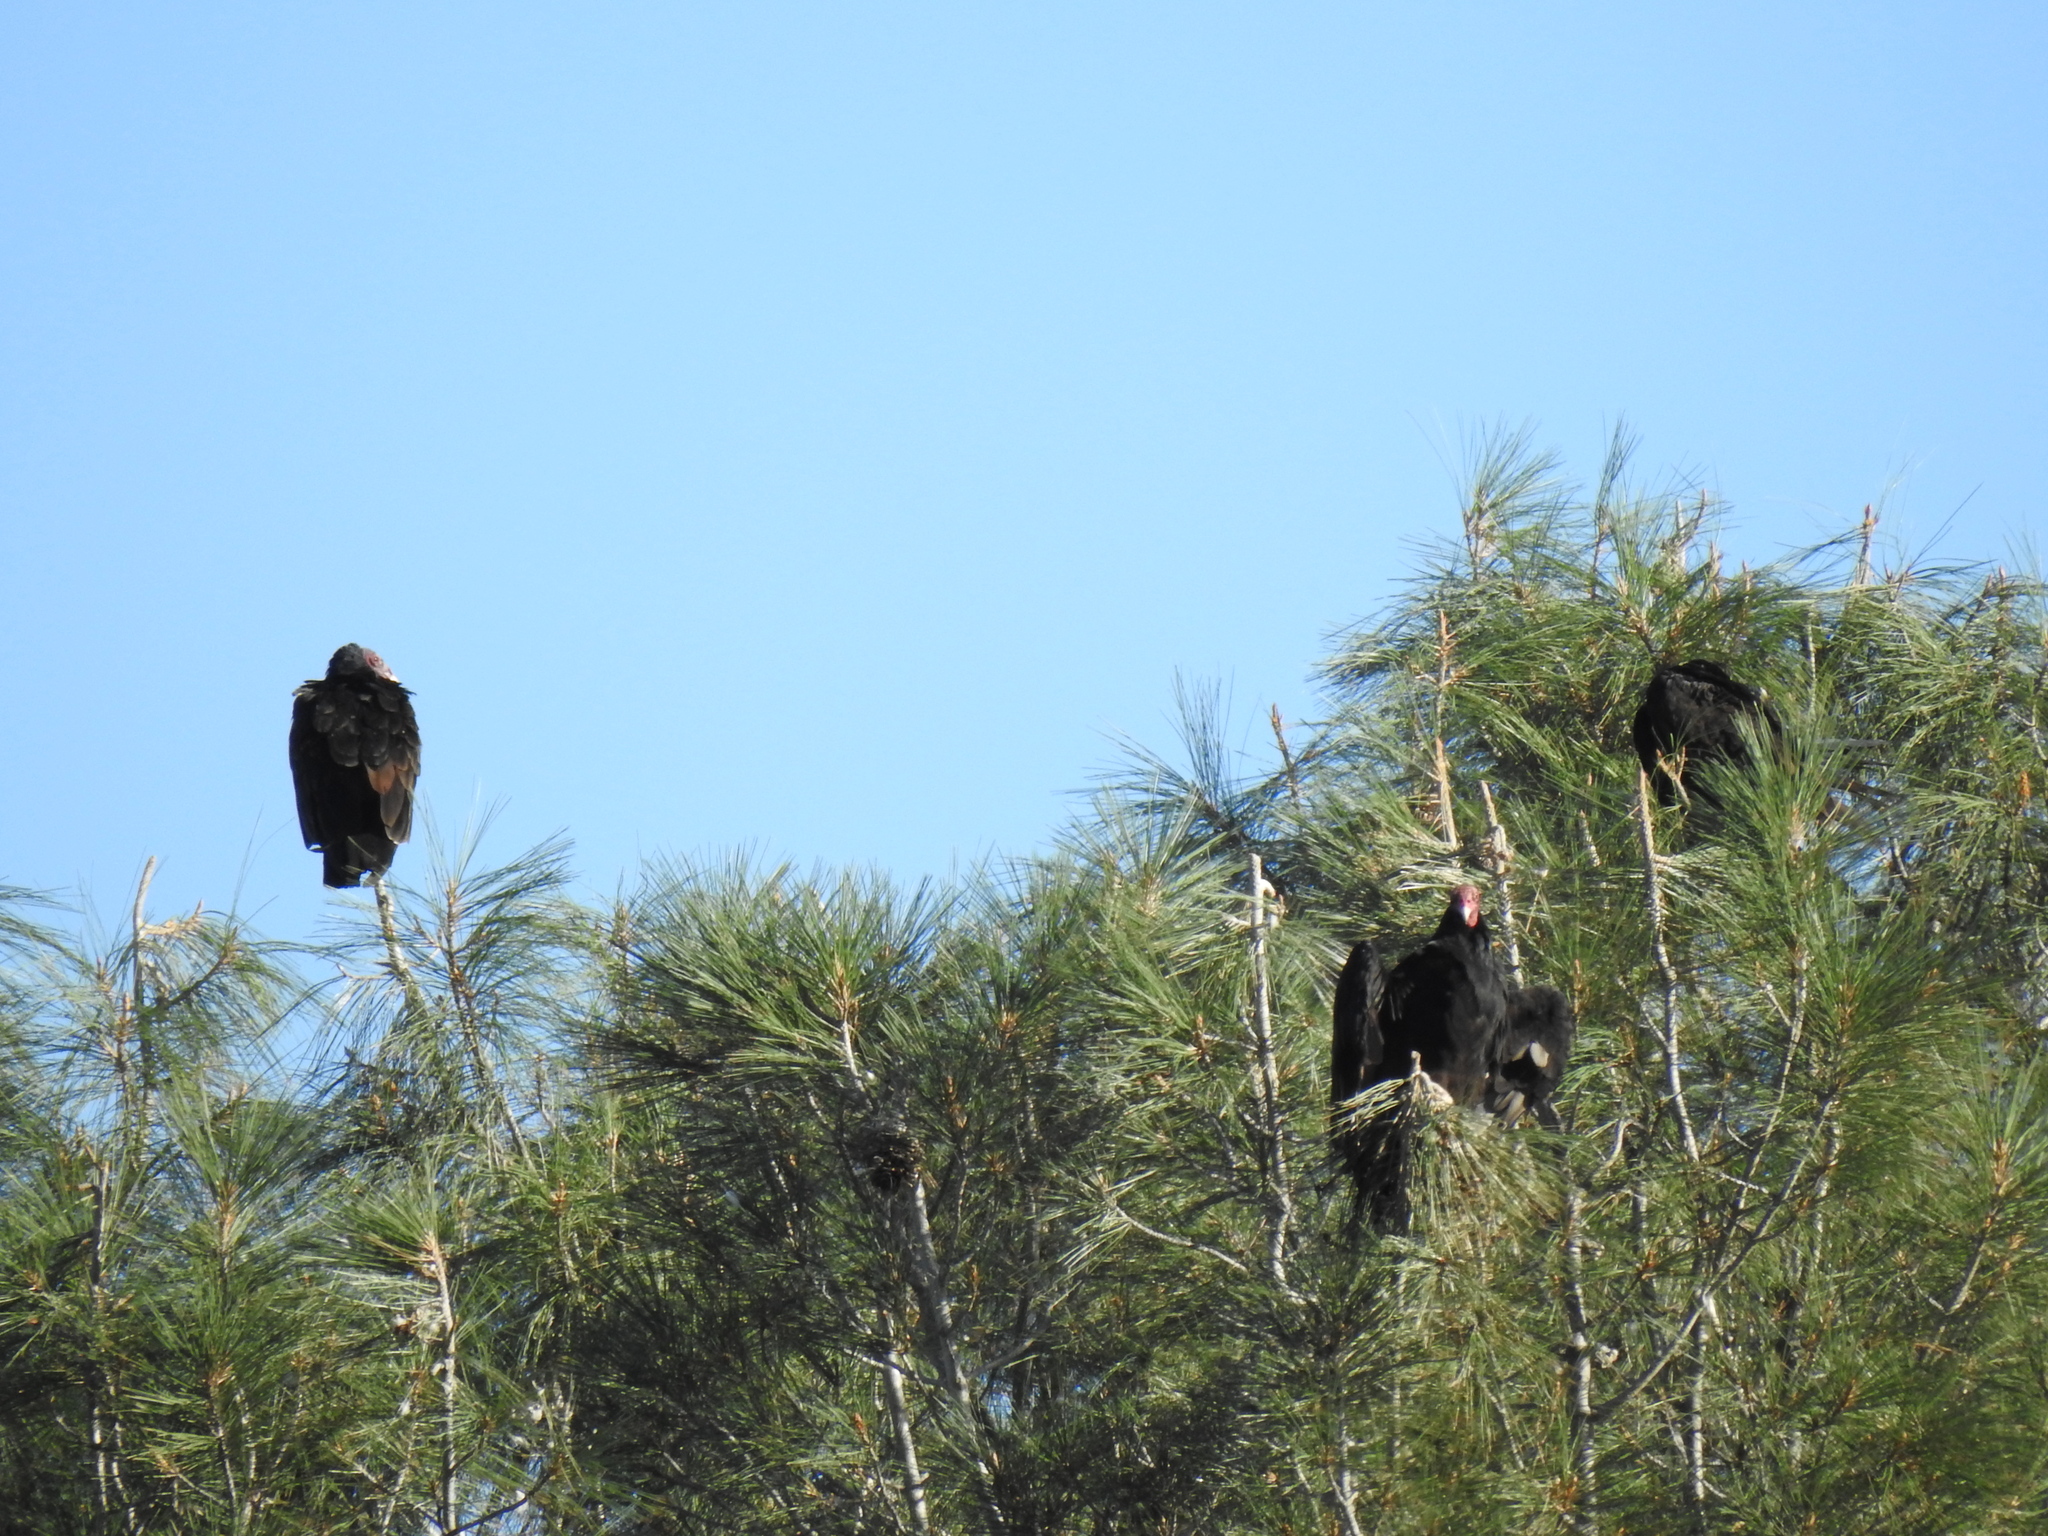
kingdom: Animalia
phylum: Chordata
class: Aves
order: Accipitriformes
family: Cathartidae
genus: Cathartes
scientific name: Cathartes aura
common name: Turkey vulture
